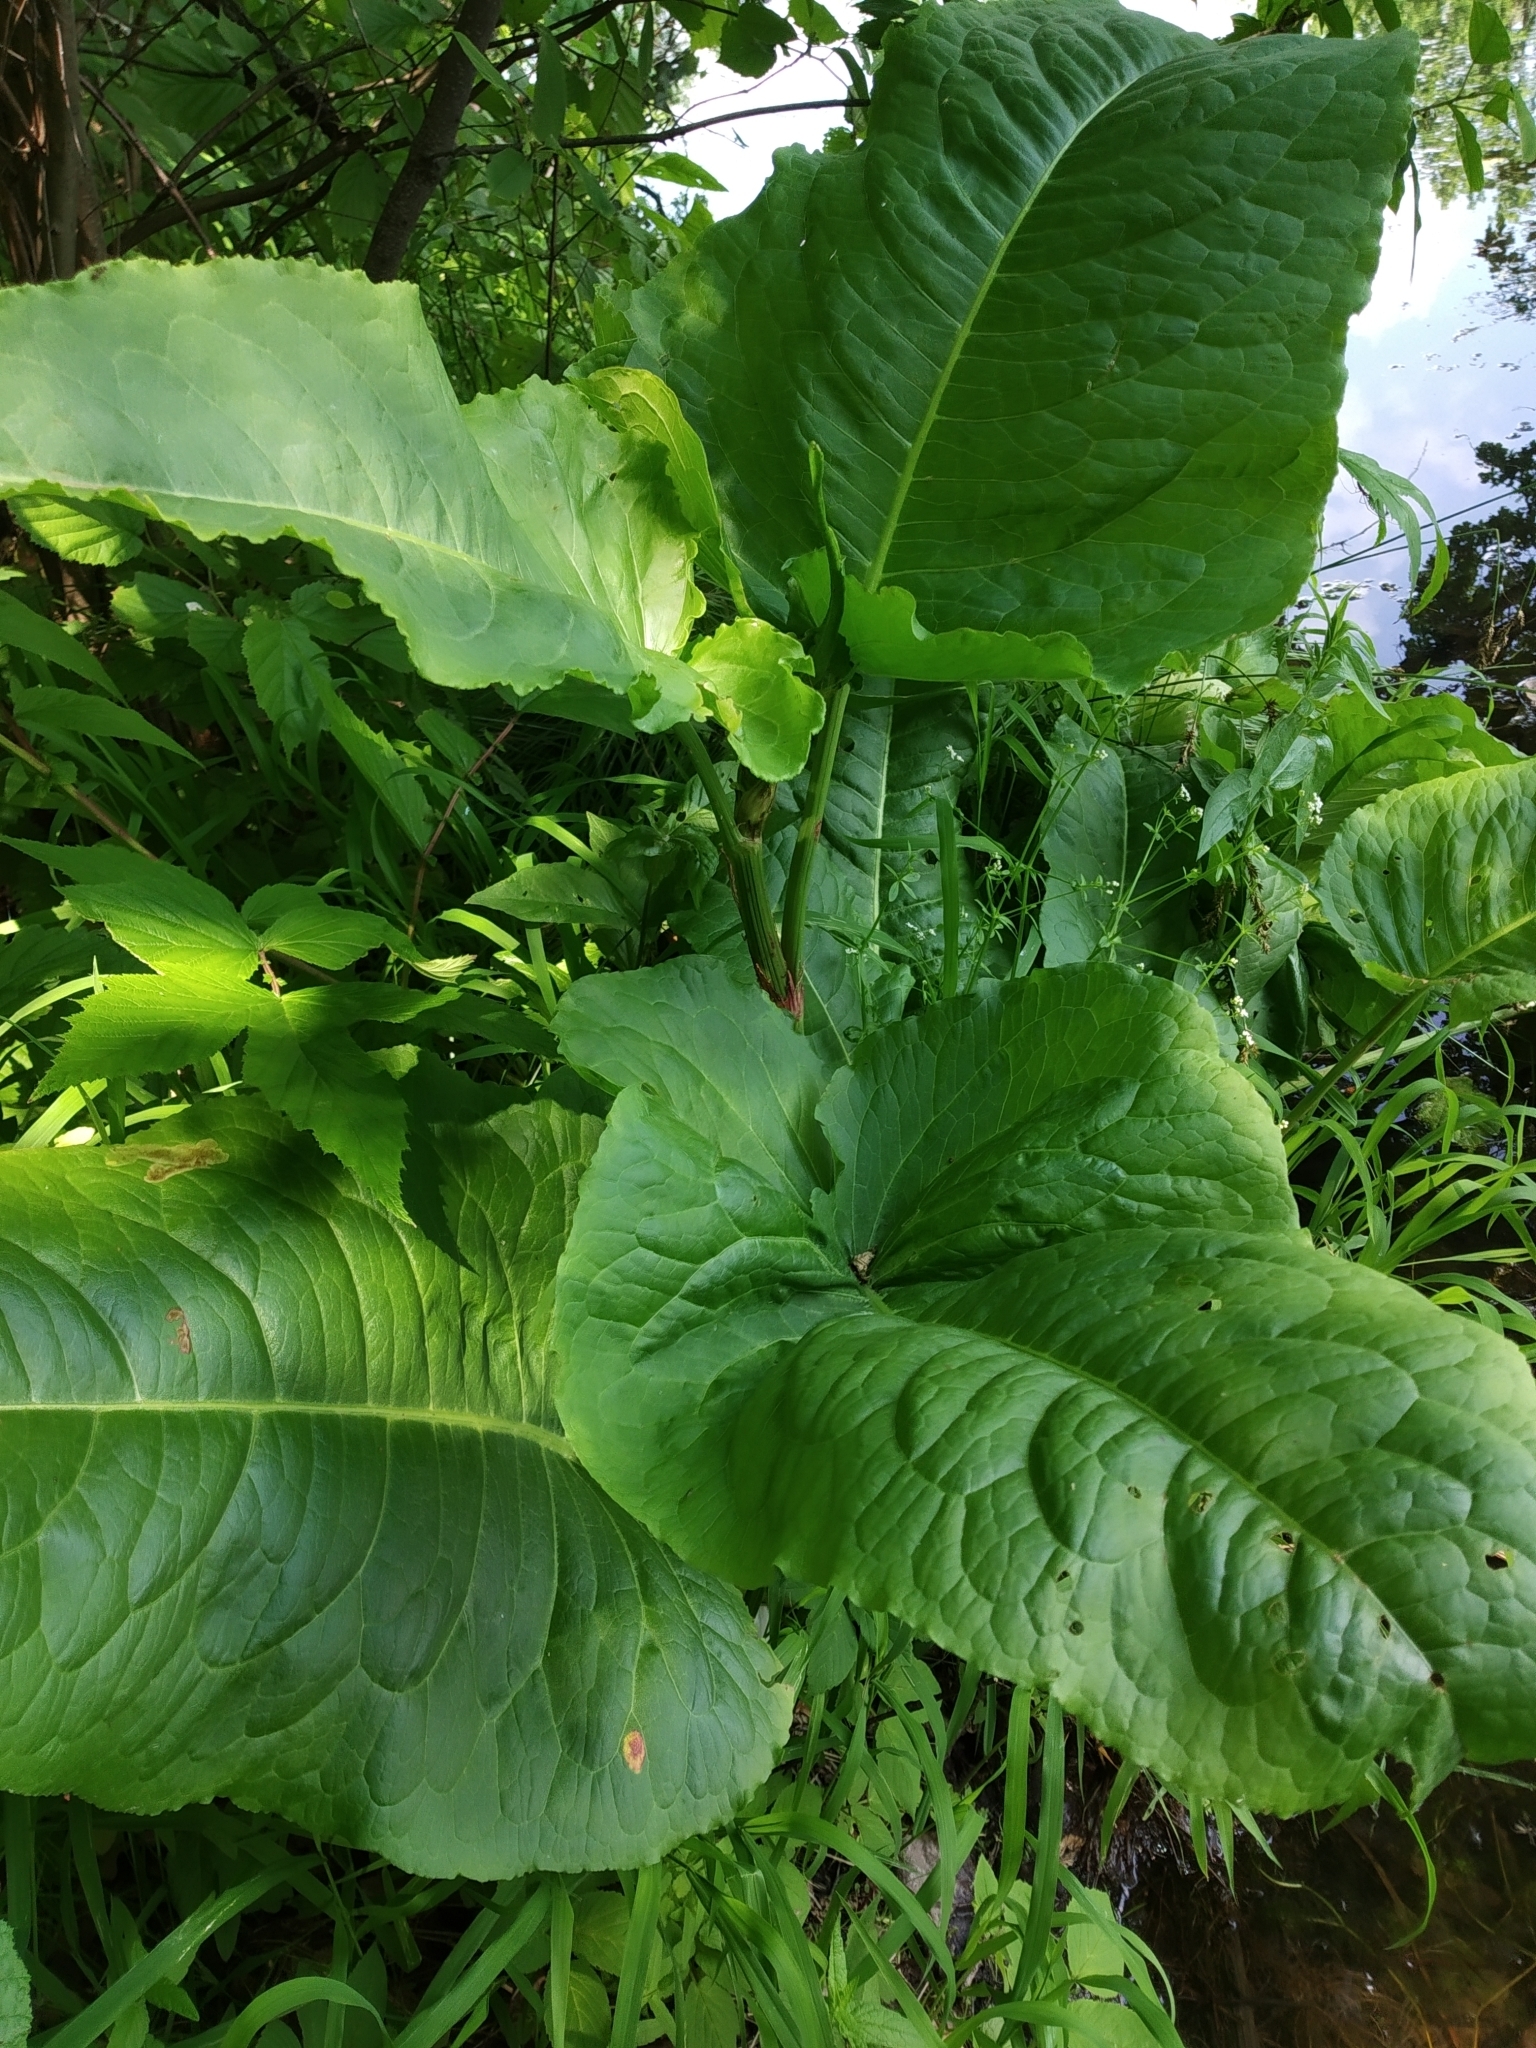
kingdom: Plantae
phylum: Tracheophyta
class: Magnoliopsida
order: Caryophyllales
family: Polygonaceae
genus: Rumex
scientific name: Rumex aquaticus
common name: Scottish dock
